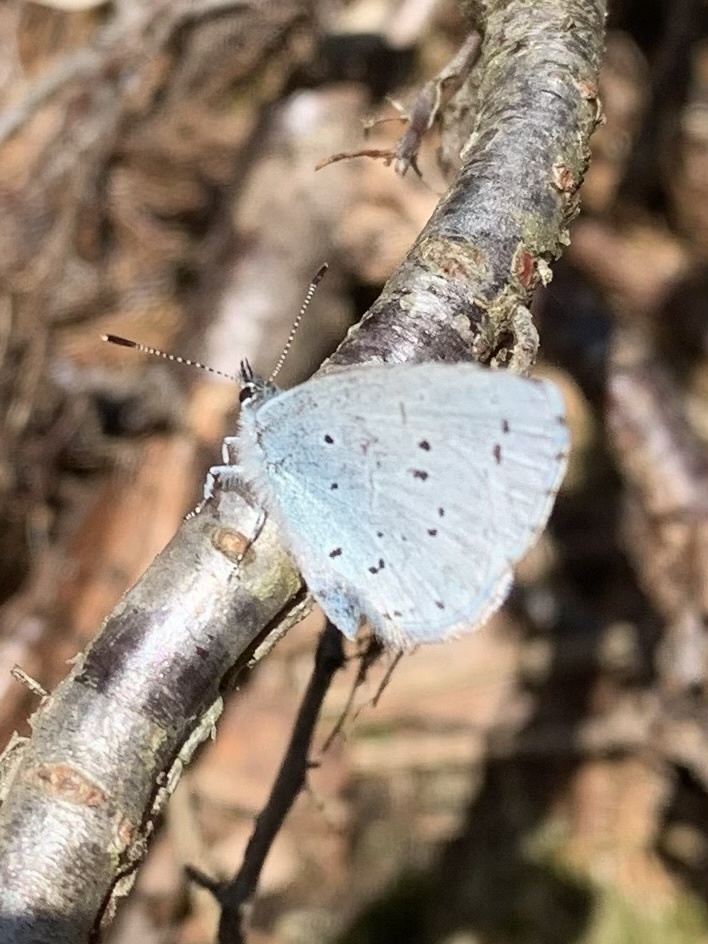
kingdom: Animalia
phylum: Arthropoda
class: Insecta
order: Lepidoptera
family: Lycaenidae
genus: Celastrina
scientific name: Celastrina argiolus
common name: Holly blue
